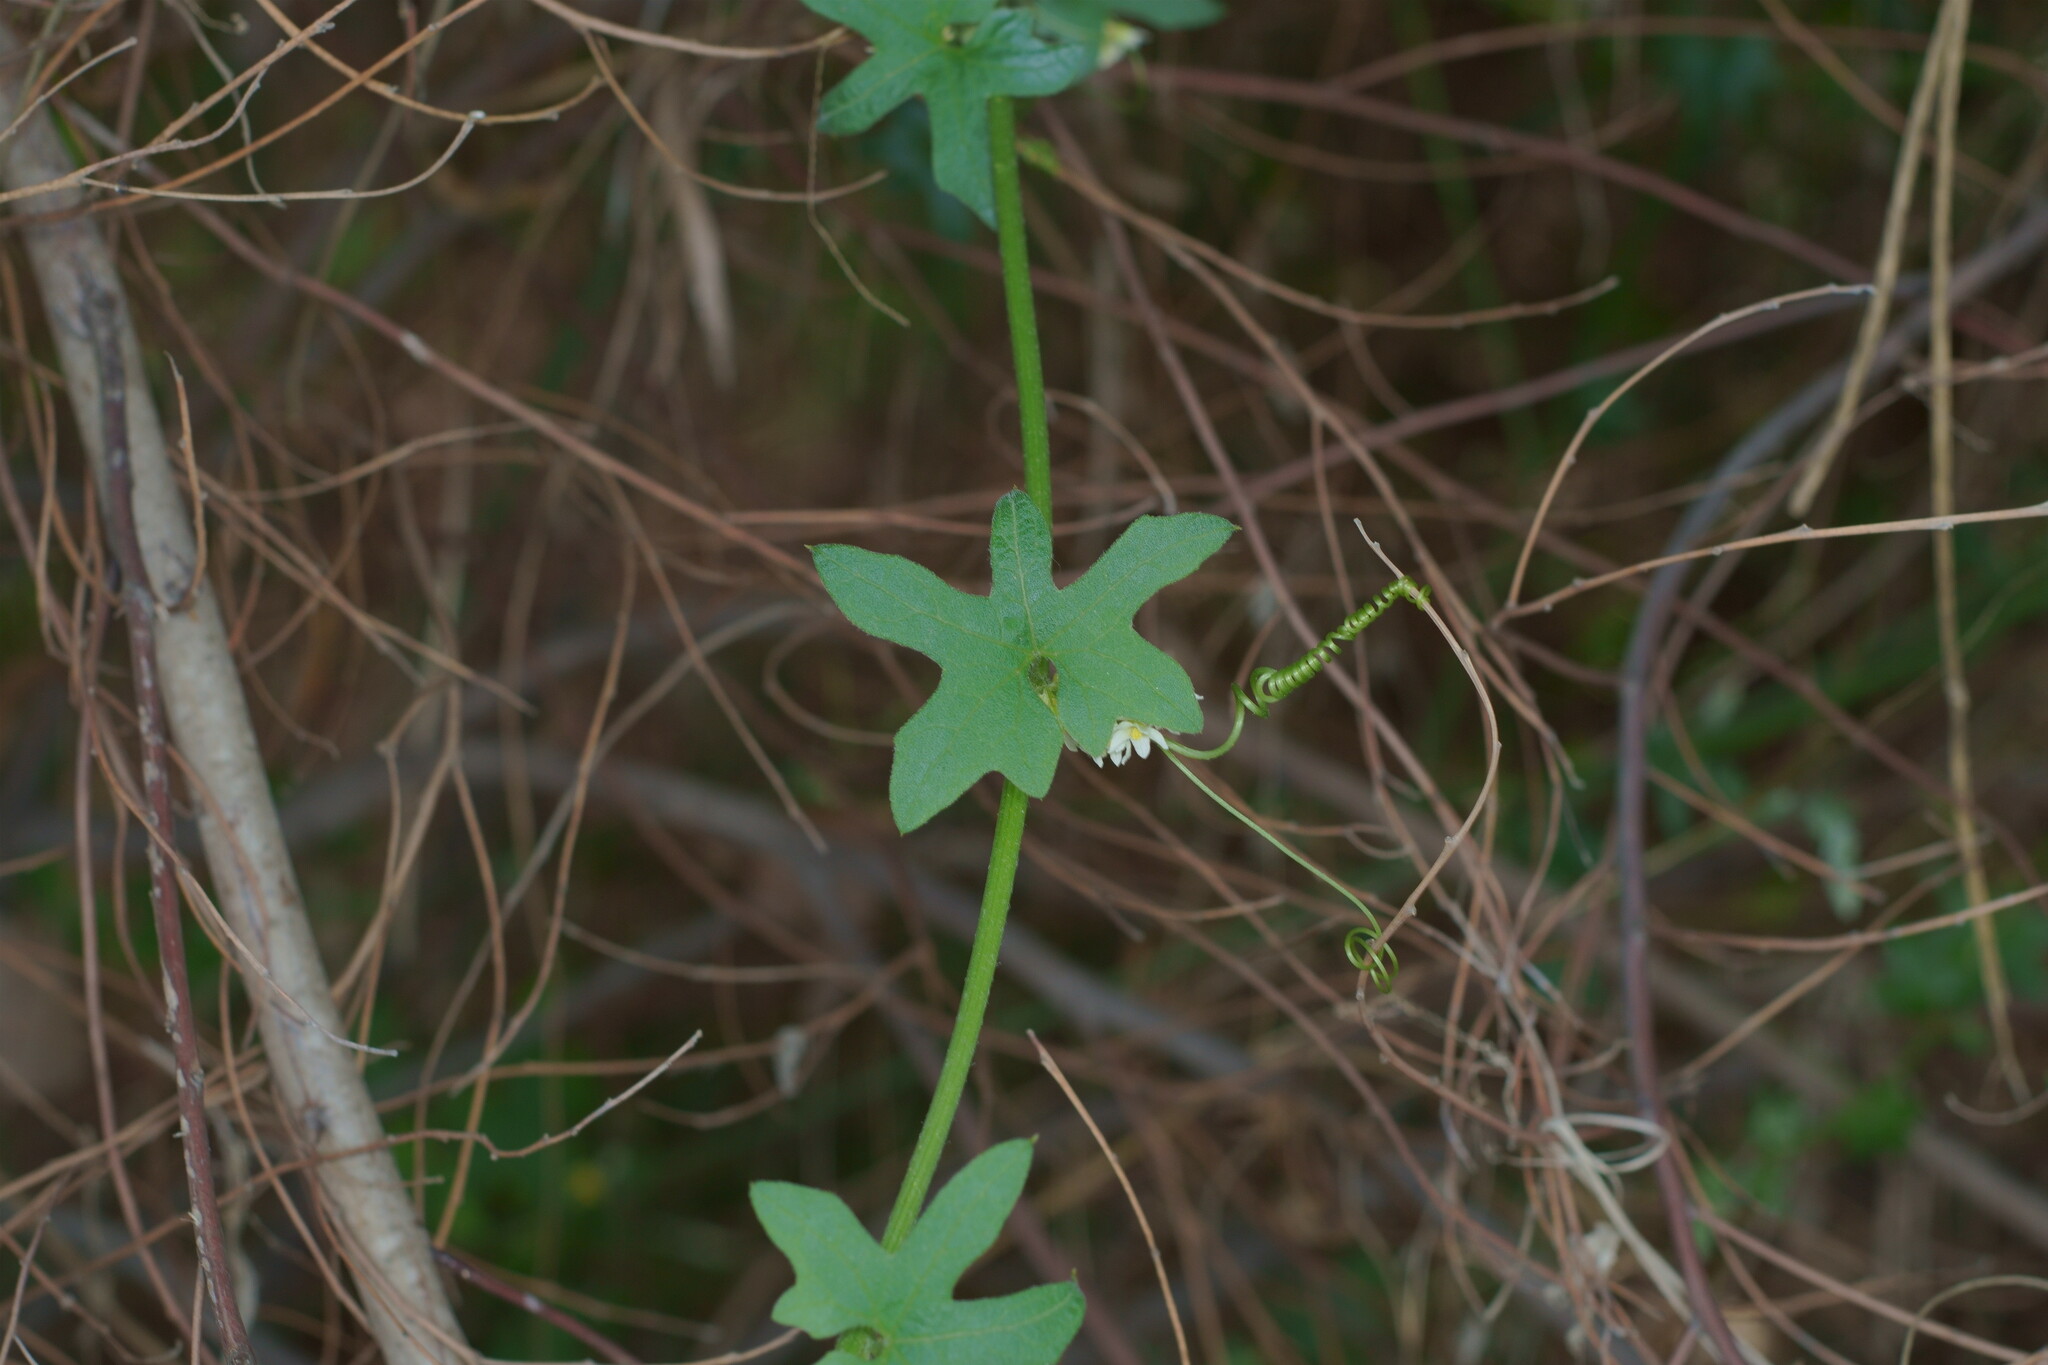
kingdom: Plantae
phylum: Tracheophyta
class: Magnoliopsida
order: Cucurbitales
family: Cucurbitaceae
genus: Marah
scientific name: Marah macrocarpa
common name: Cucamonga manroot
